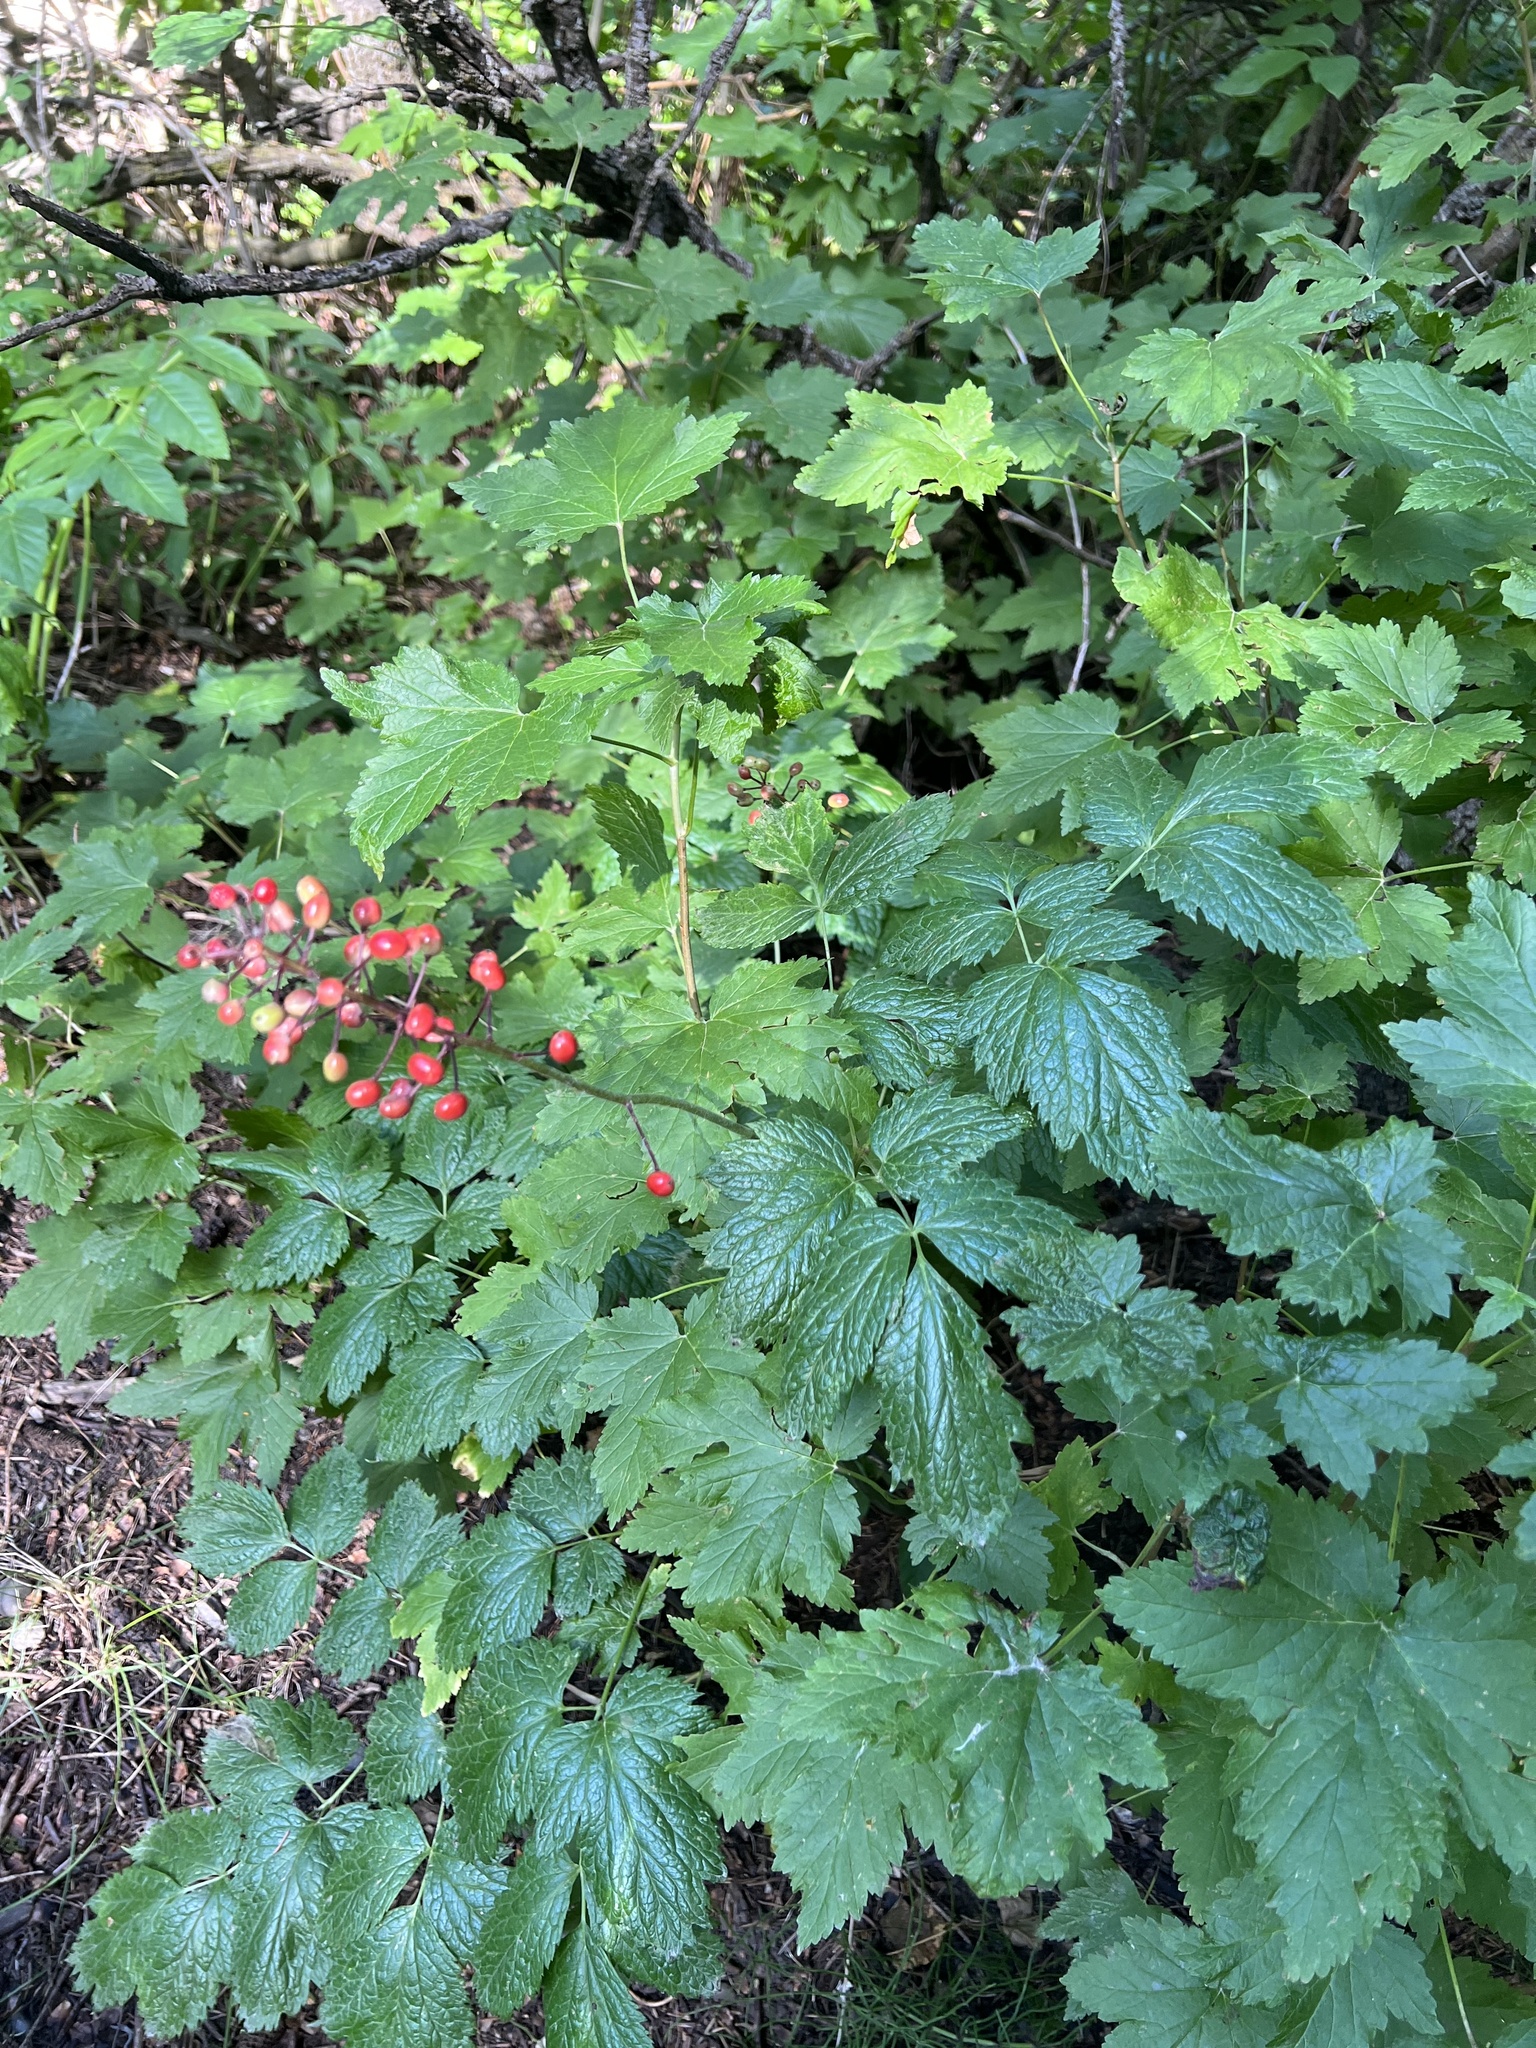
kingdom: Plantae
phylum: Tracheophyta
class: Magnoliopsida
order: Ranunculales
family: Ranunculaceae
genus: Actaea
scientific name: Actaea rubra
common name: Red baneberry
